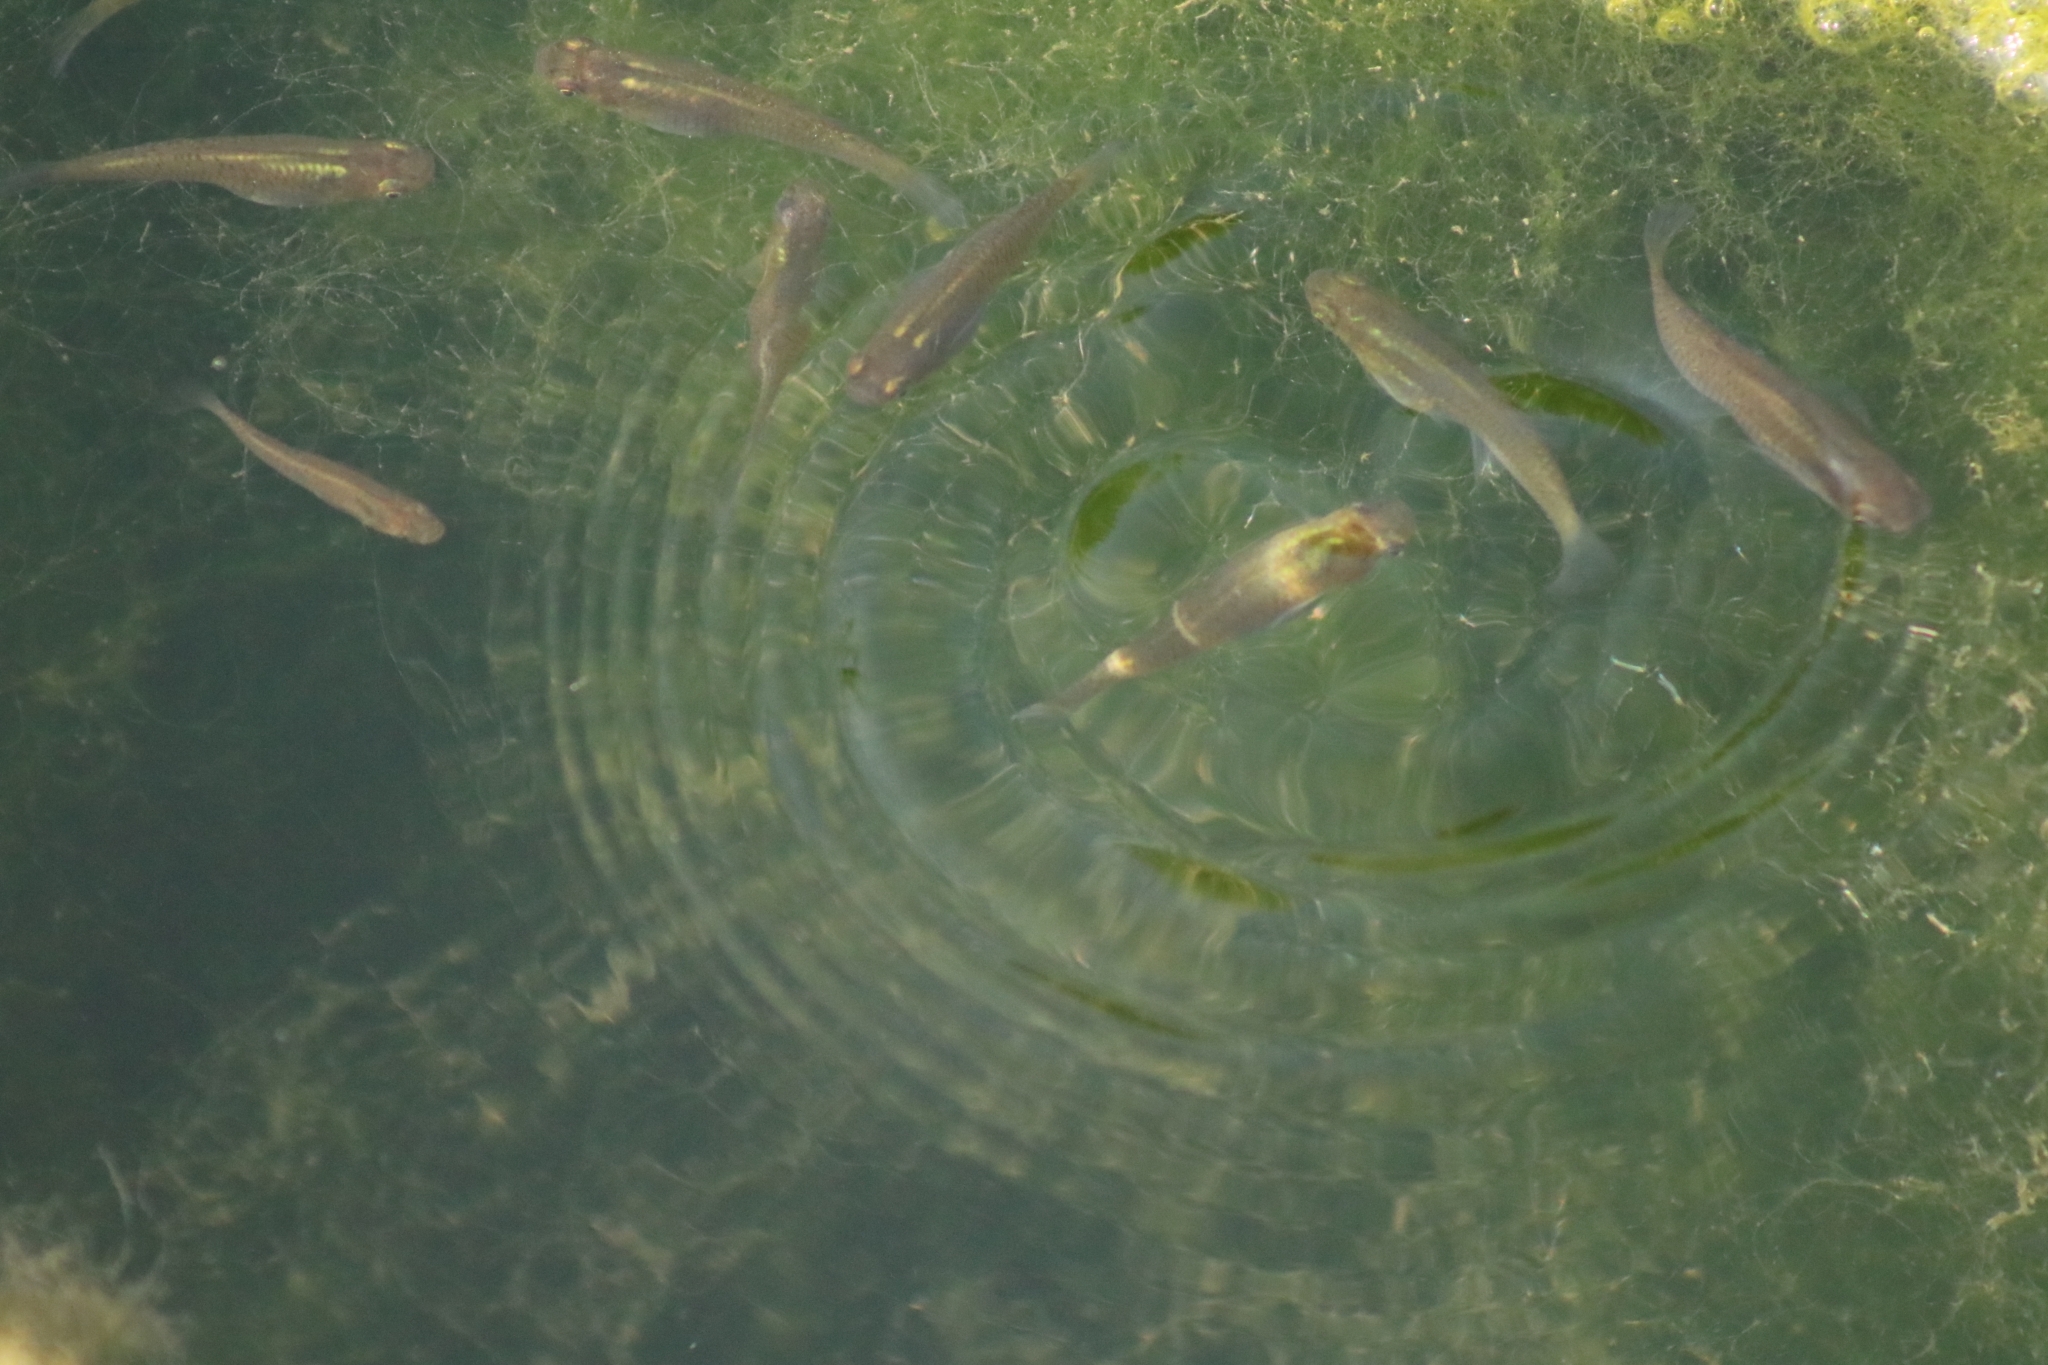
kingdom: Animalia
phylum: Chordata
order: Cyprinodontiformes
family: Poeciliidae
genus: Gambusia
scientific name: Gambusia holbrooki
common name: Eastern mosquitofish
